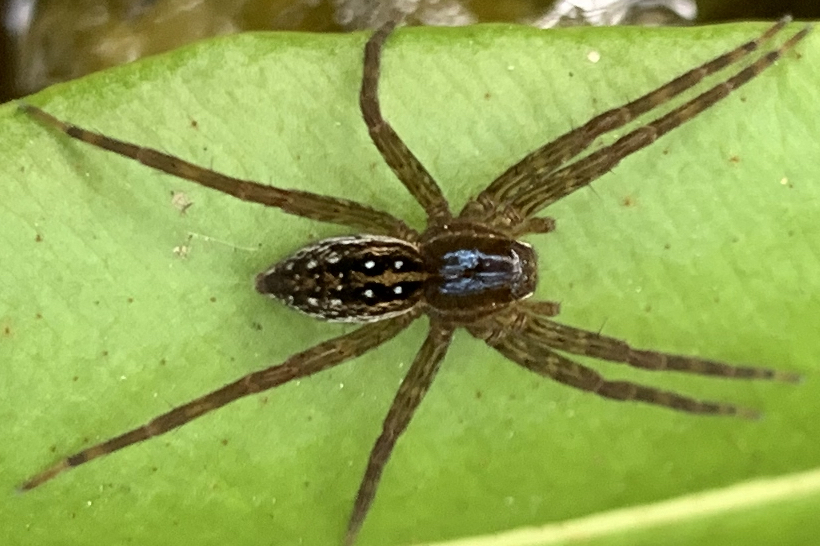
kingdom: Animalia
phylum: Arthropoda
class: Arachnida
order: Araneae
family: Pisauridae
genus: Dolomedes
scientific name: Dolomedes triton
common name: Six-spotted fishing spider
